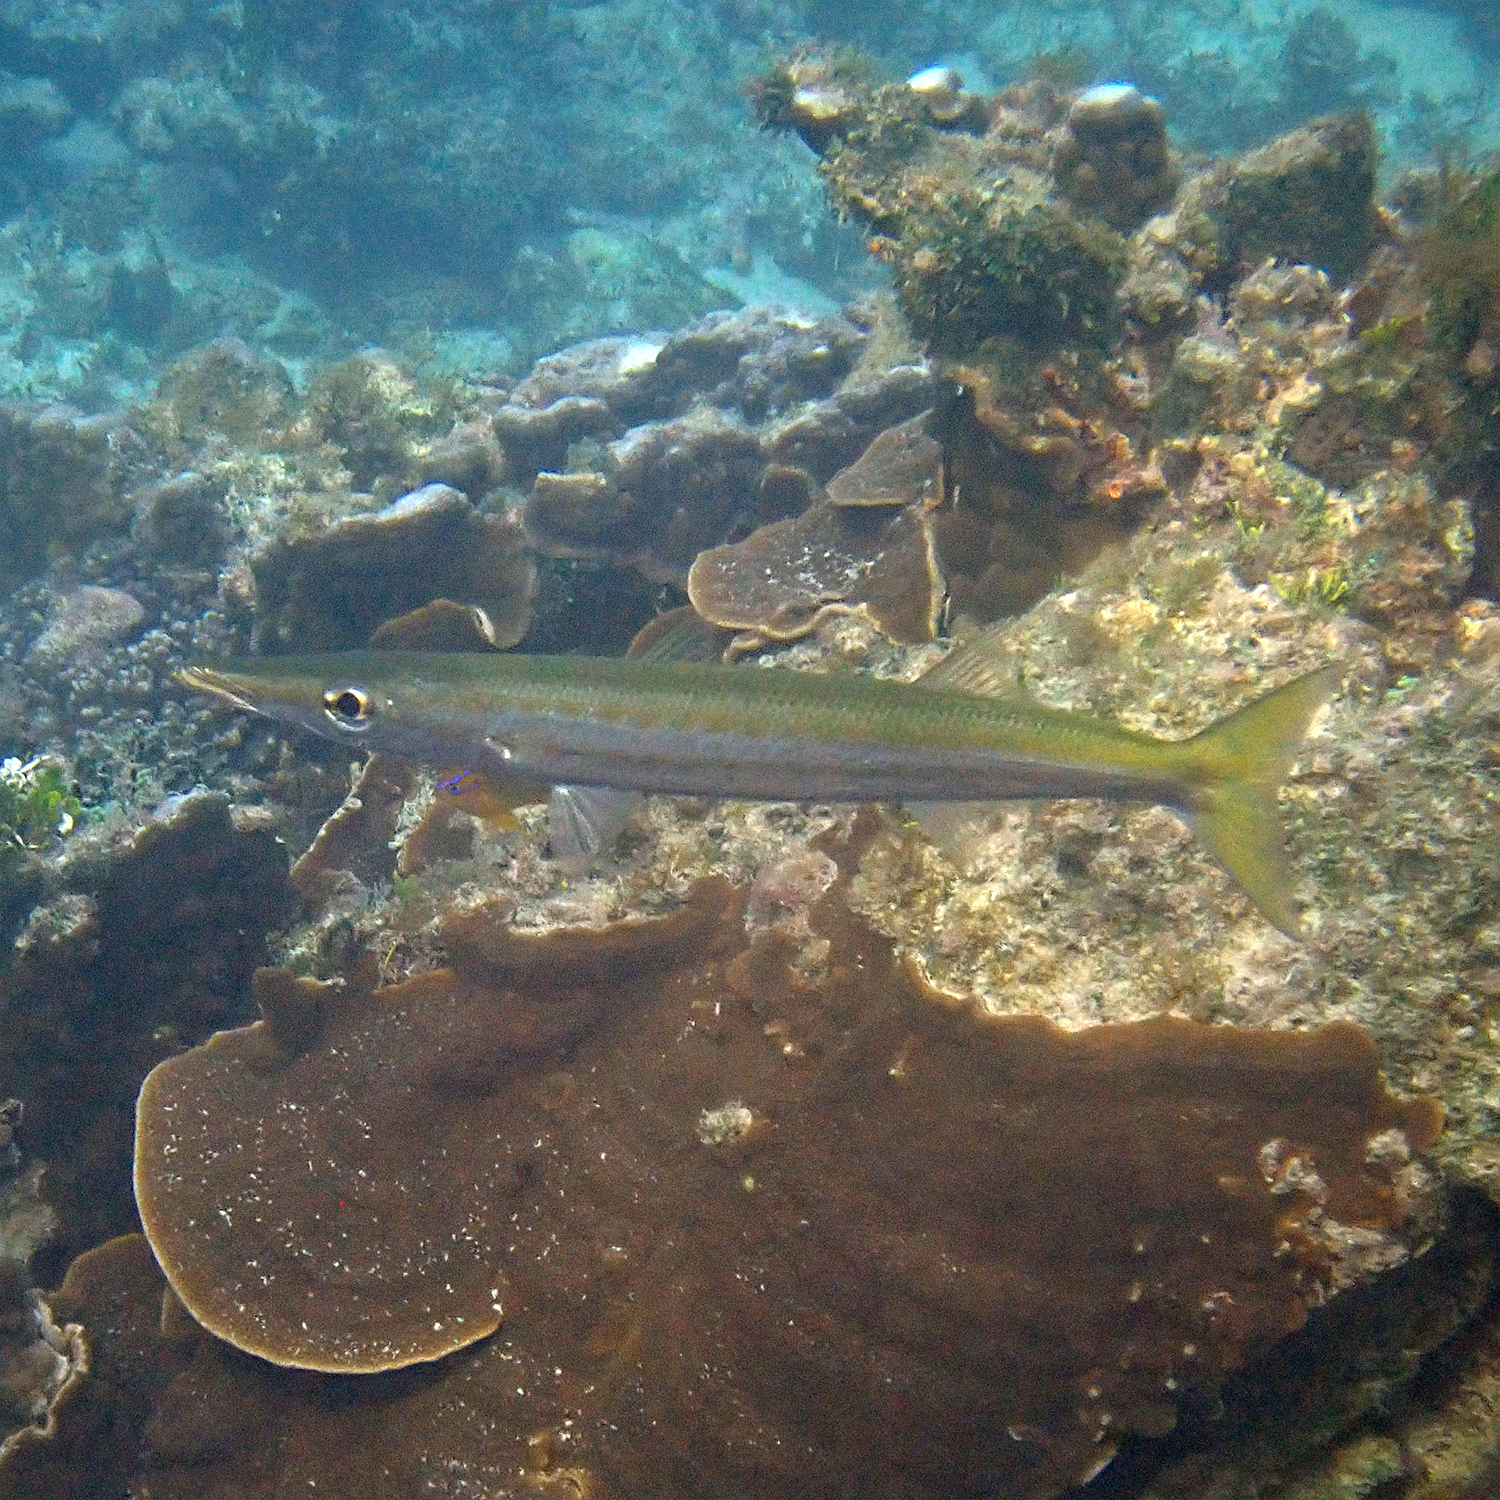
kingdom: Animalia
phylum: Chordata
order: Perciformes
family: Sphyraenidae
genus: Sphyraena
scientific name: Sphyraena obtusata
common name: Obtuse barracuda
